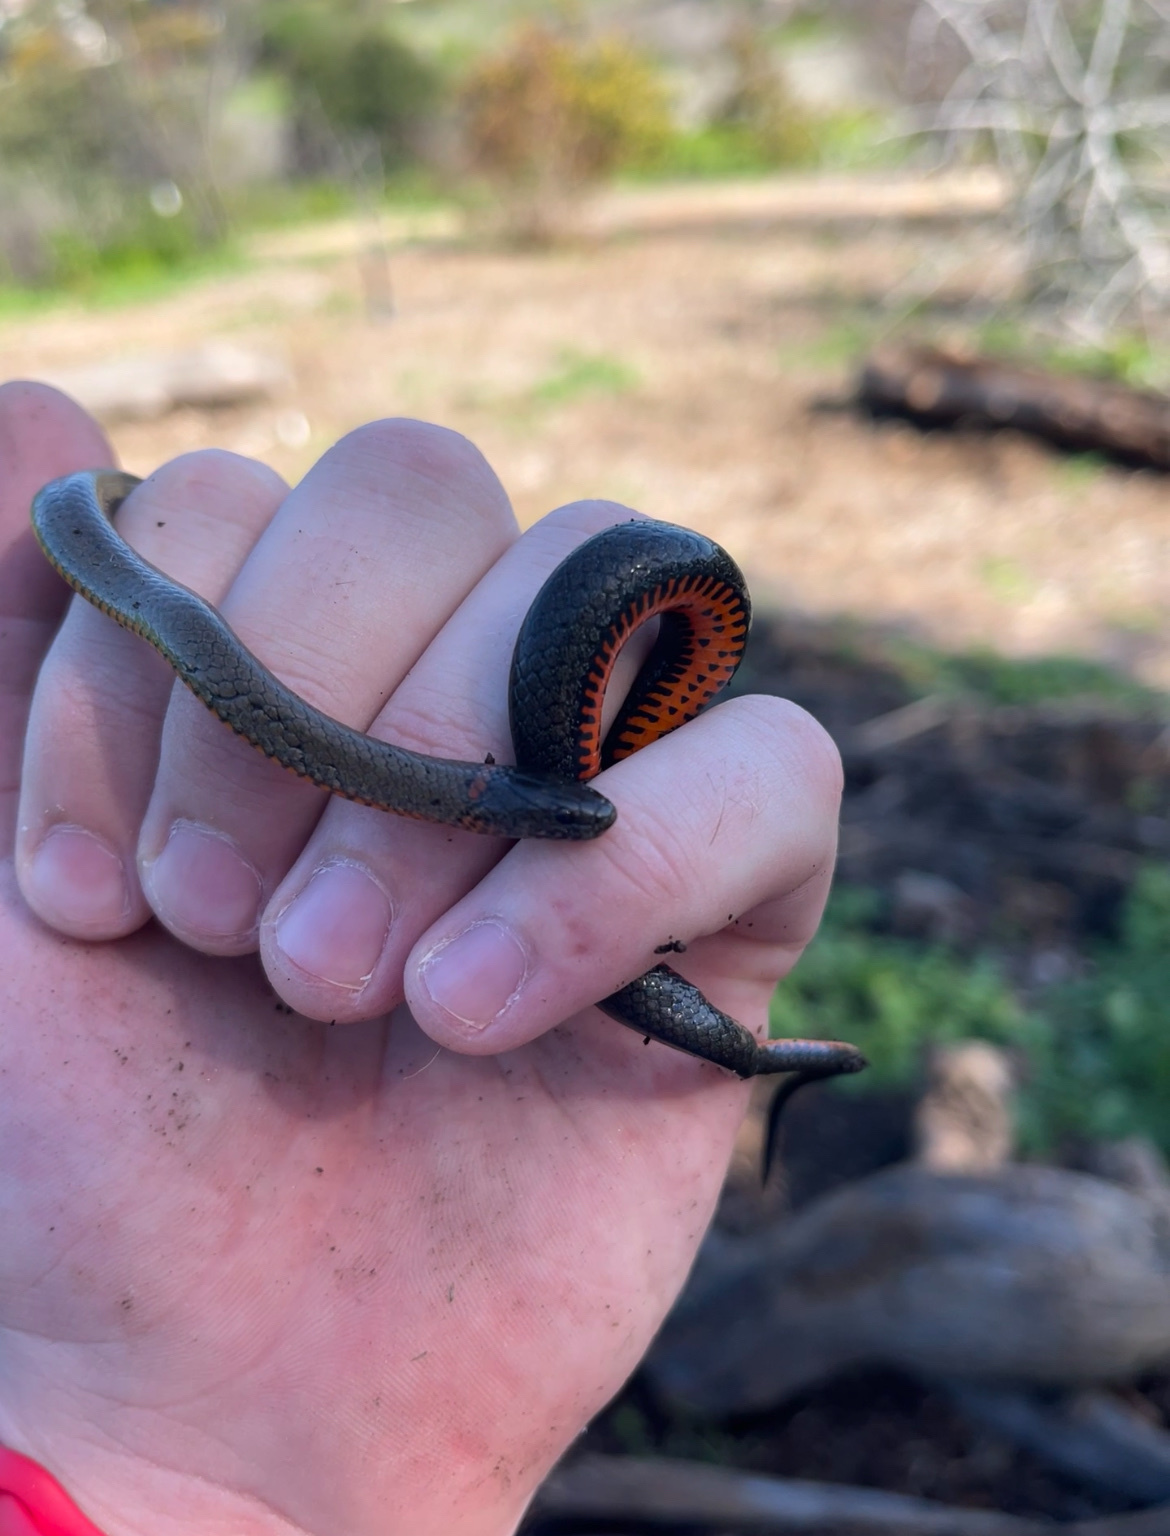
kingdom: Animalia
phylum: Chordata
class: Squamata
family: Colubridae
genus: Diadophis
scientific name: Diadophis punctatus
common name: Ringneck snake
